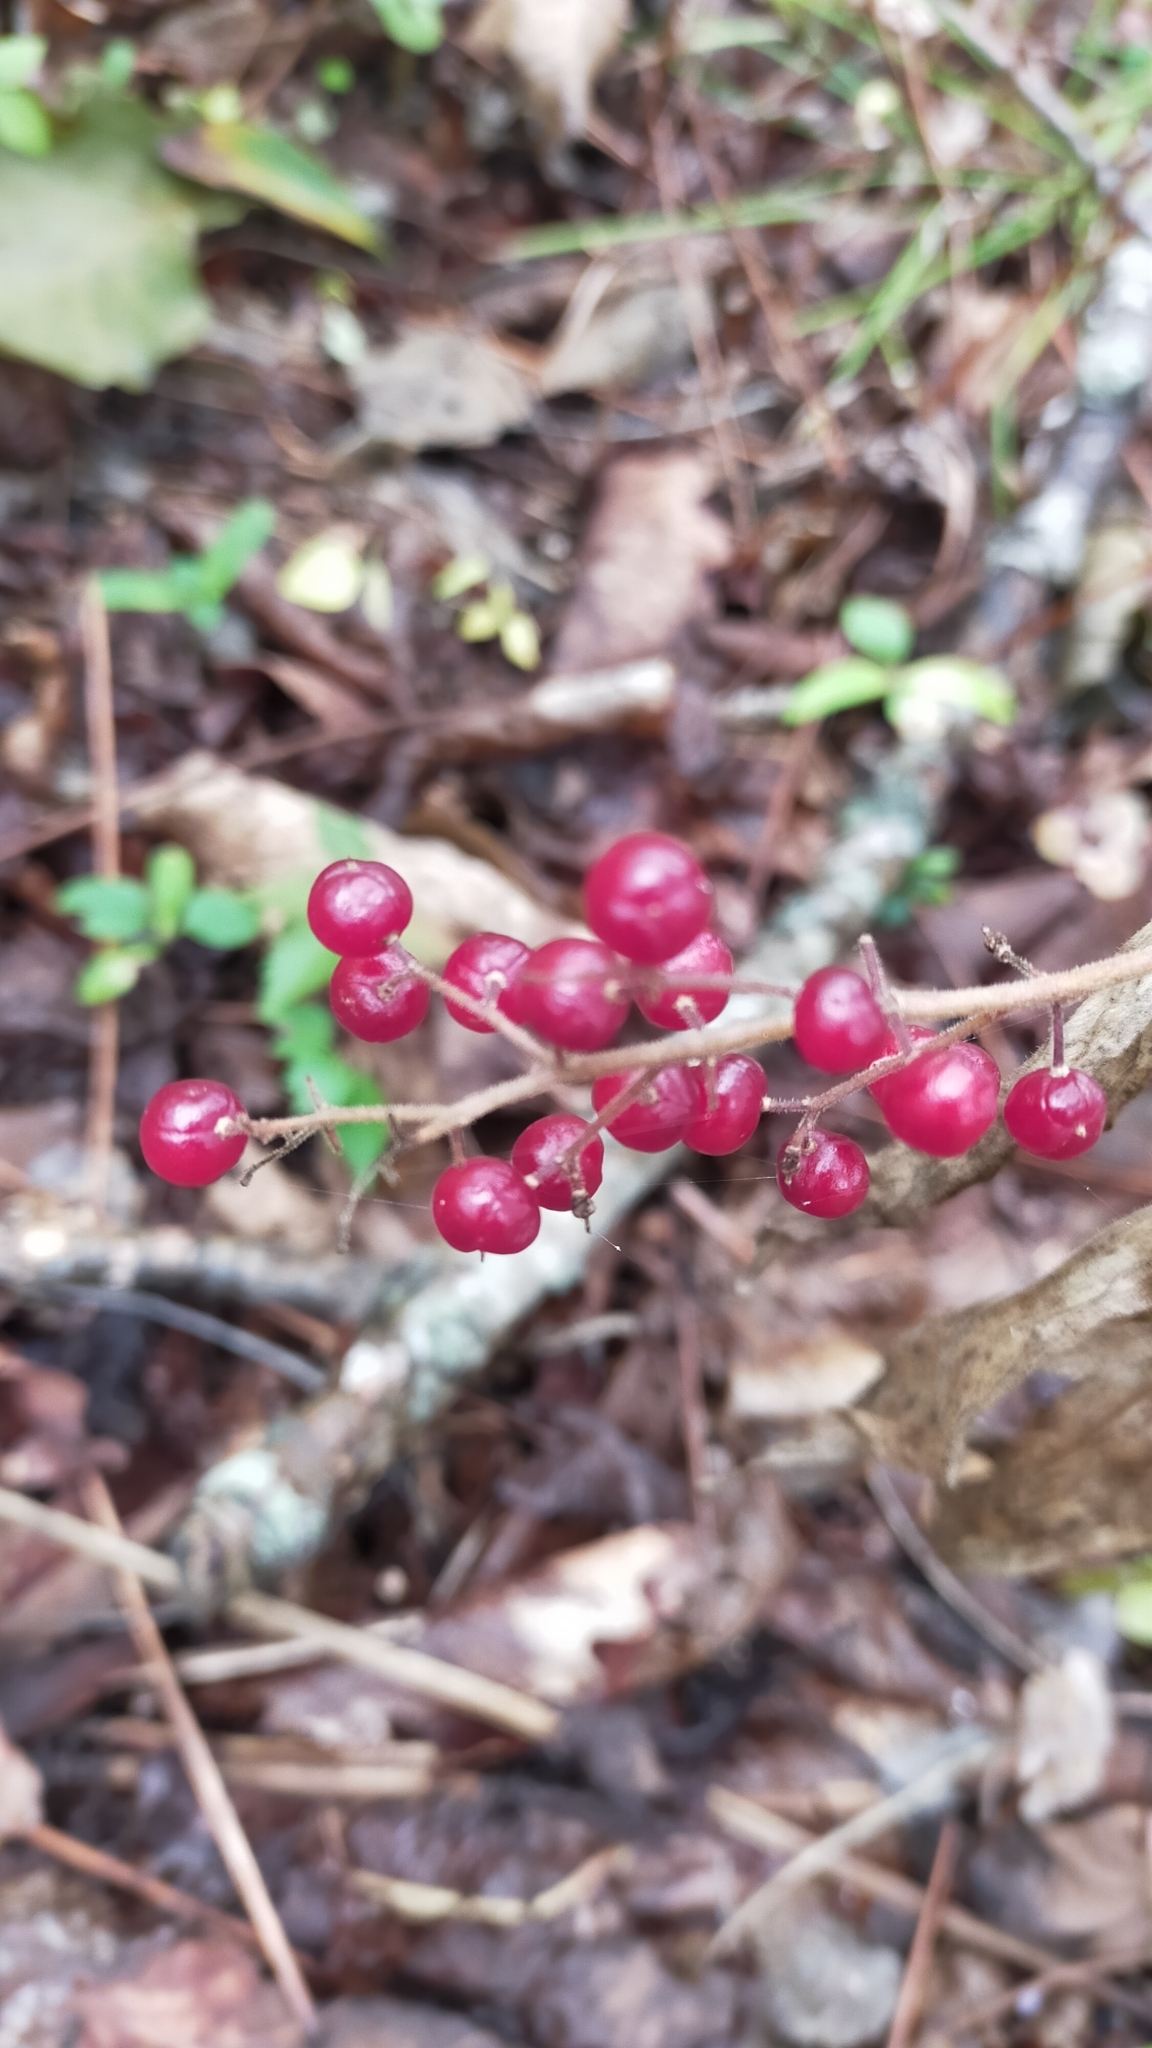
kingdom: Plantae
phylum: Tracheophyta
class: Liliopsida
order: Asparagales
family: Asparagaceae
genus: Maianthemum
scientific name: Maianthemum japonicum
